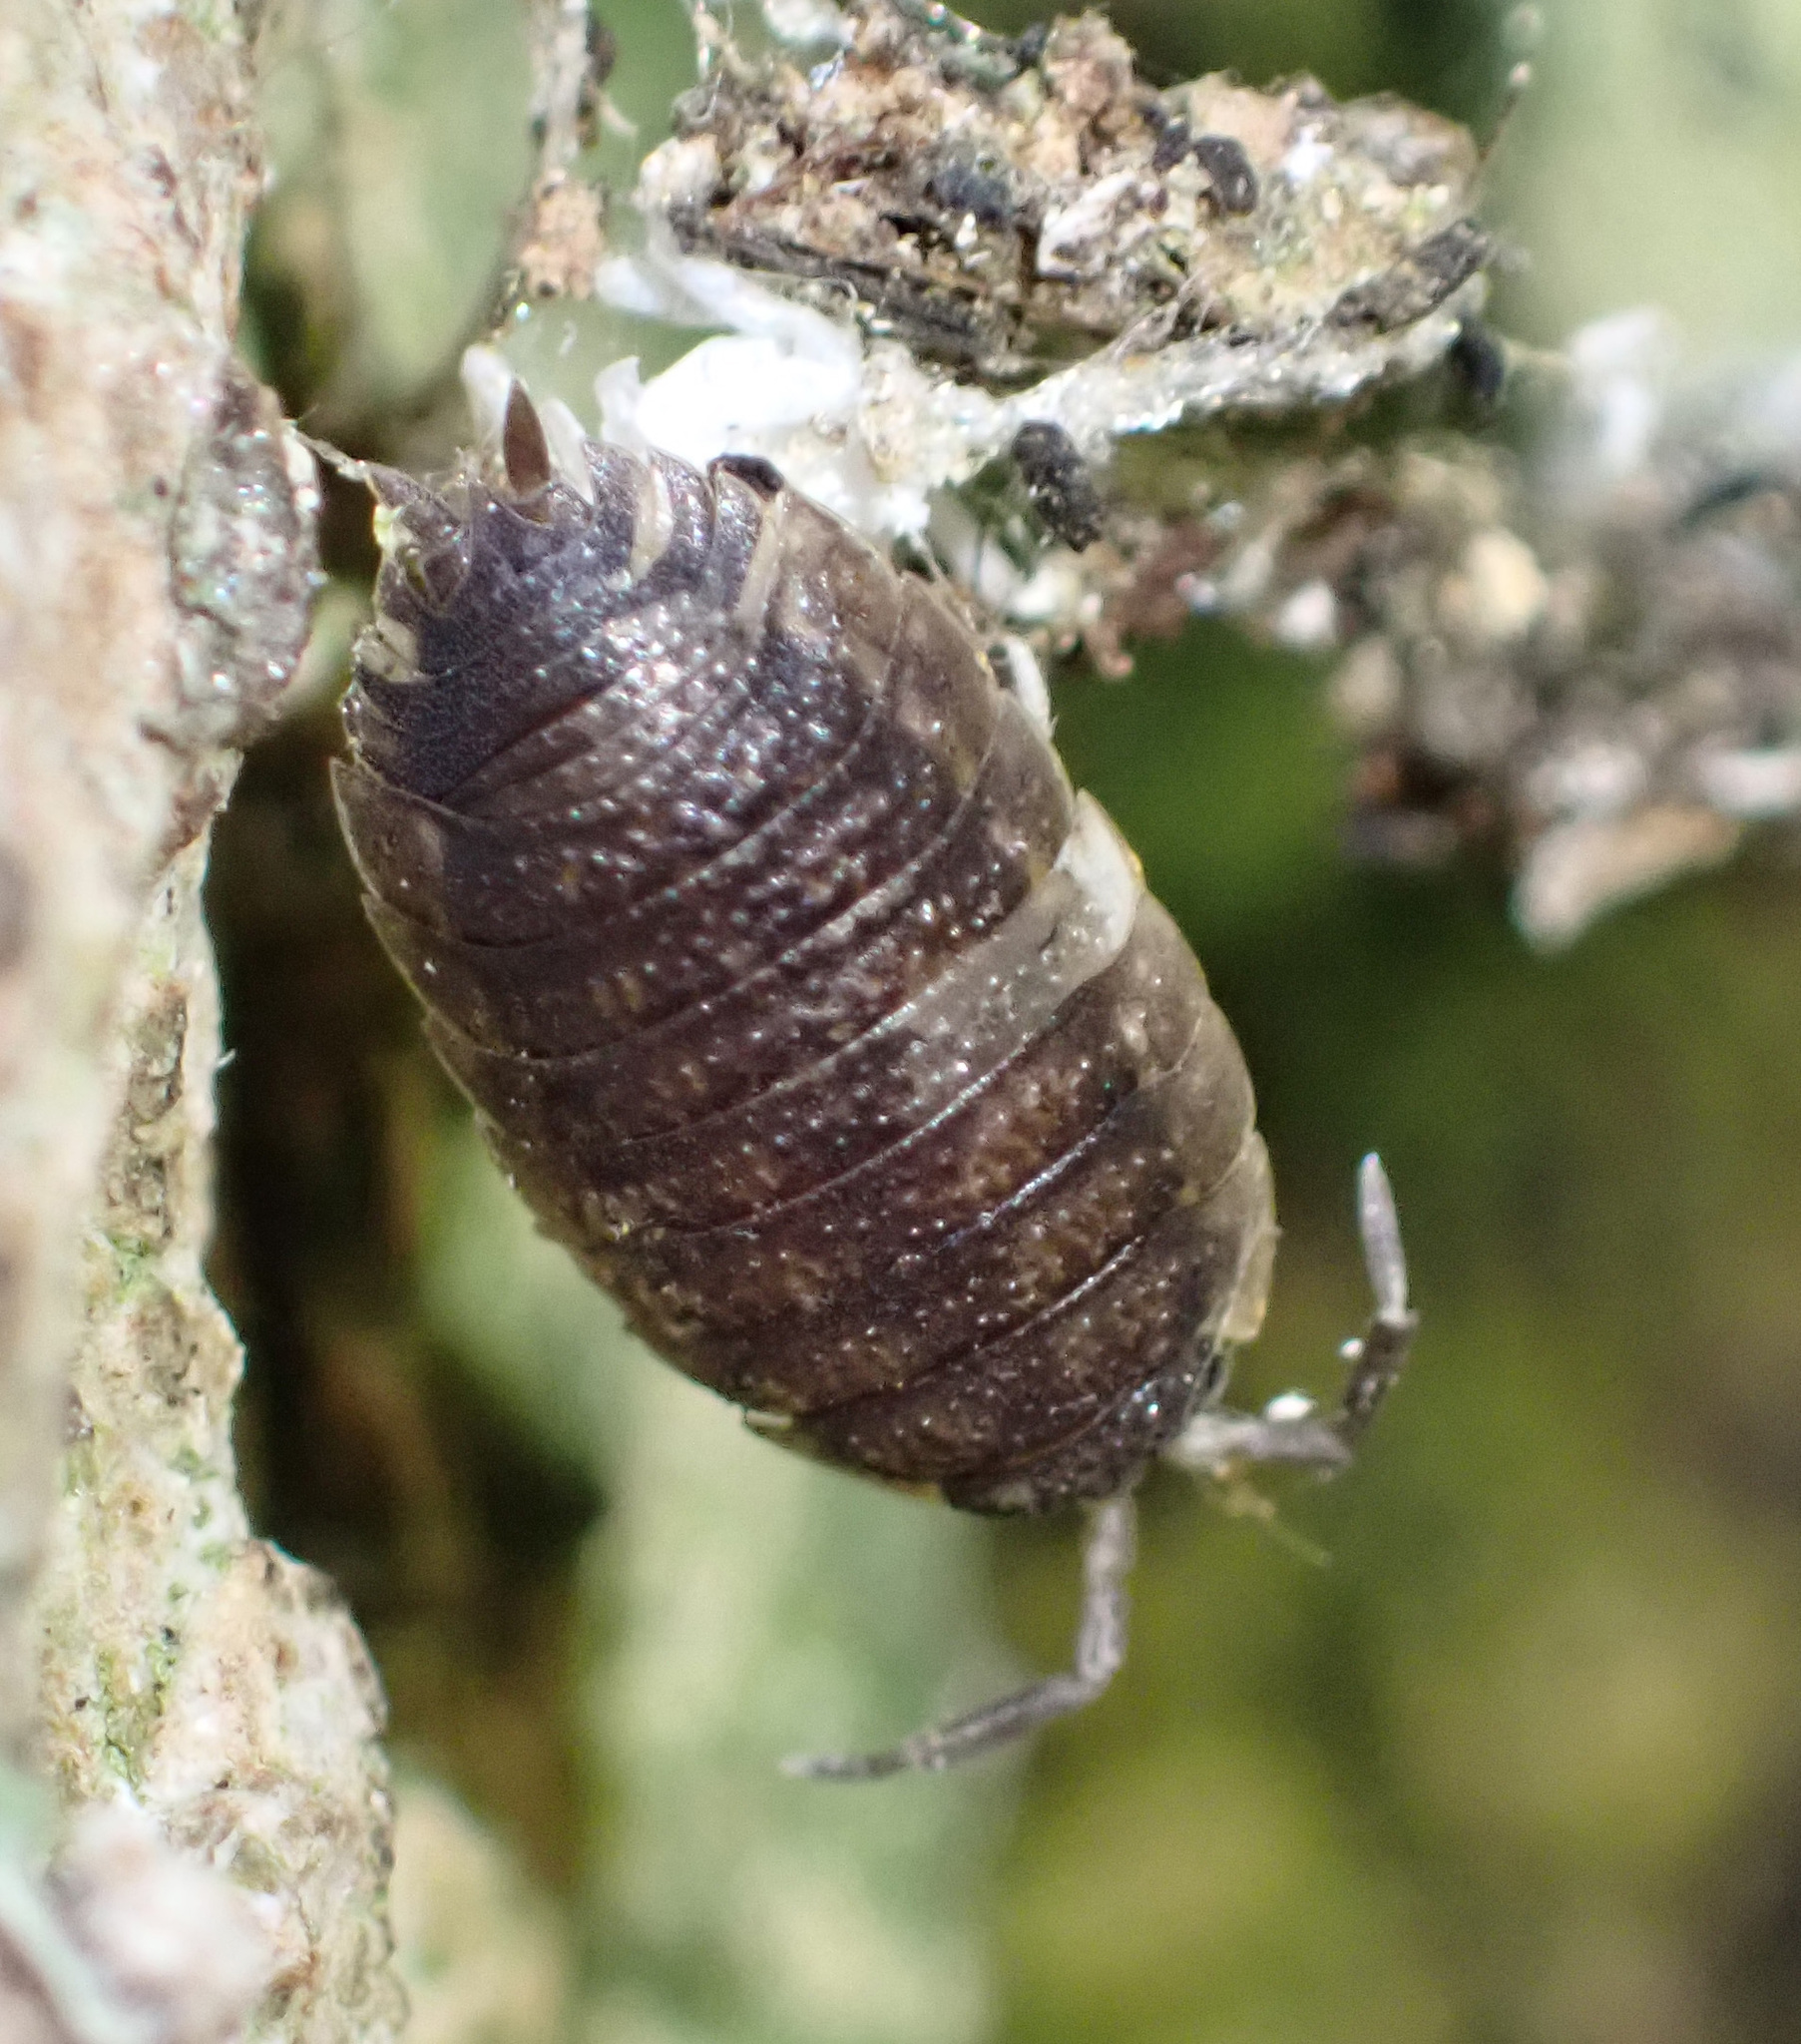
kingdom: Animalia
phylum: Arthropoda
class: Malacostraca
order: Isopoda
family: Porcellionidae
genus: Porcellio
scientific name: Porcellio scaber
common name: Common rough woodlouse
